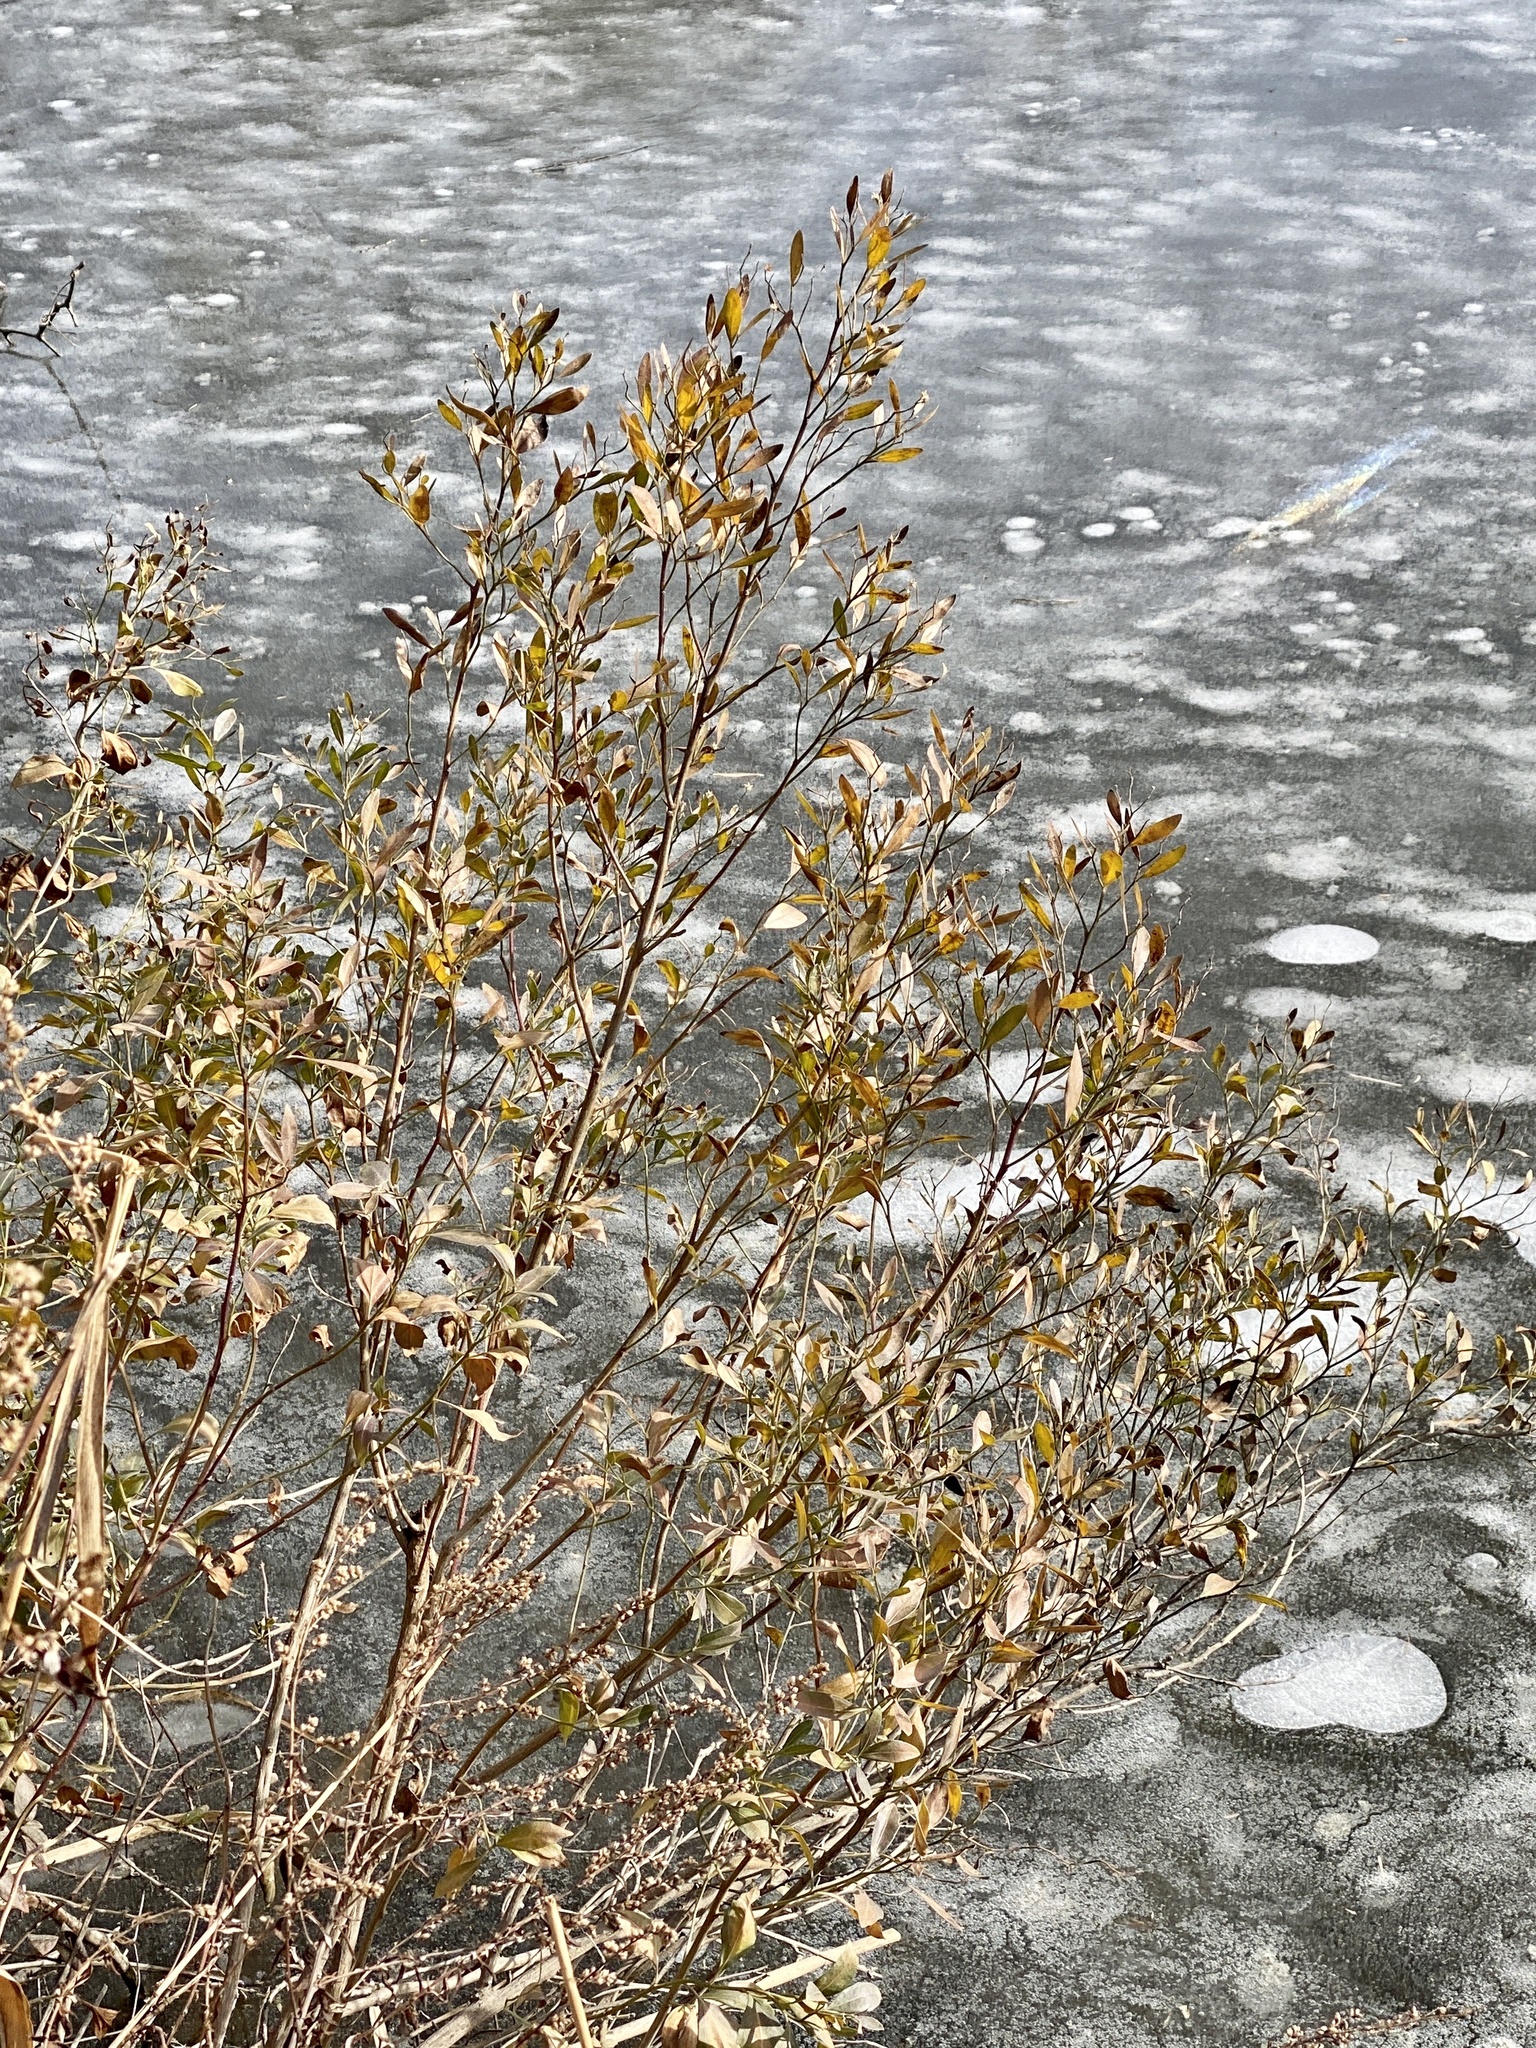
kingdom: Plantae
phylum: Tracheophyta
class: Magnoliopsida
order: Asterales
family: Asteraceae
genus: Baccharis
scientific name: Baccharis halimifolia
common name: Eastern baccharis
